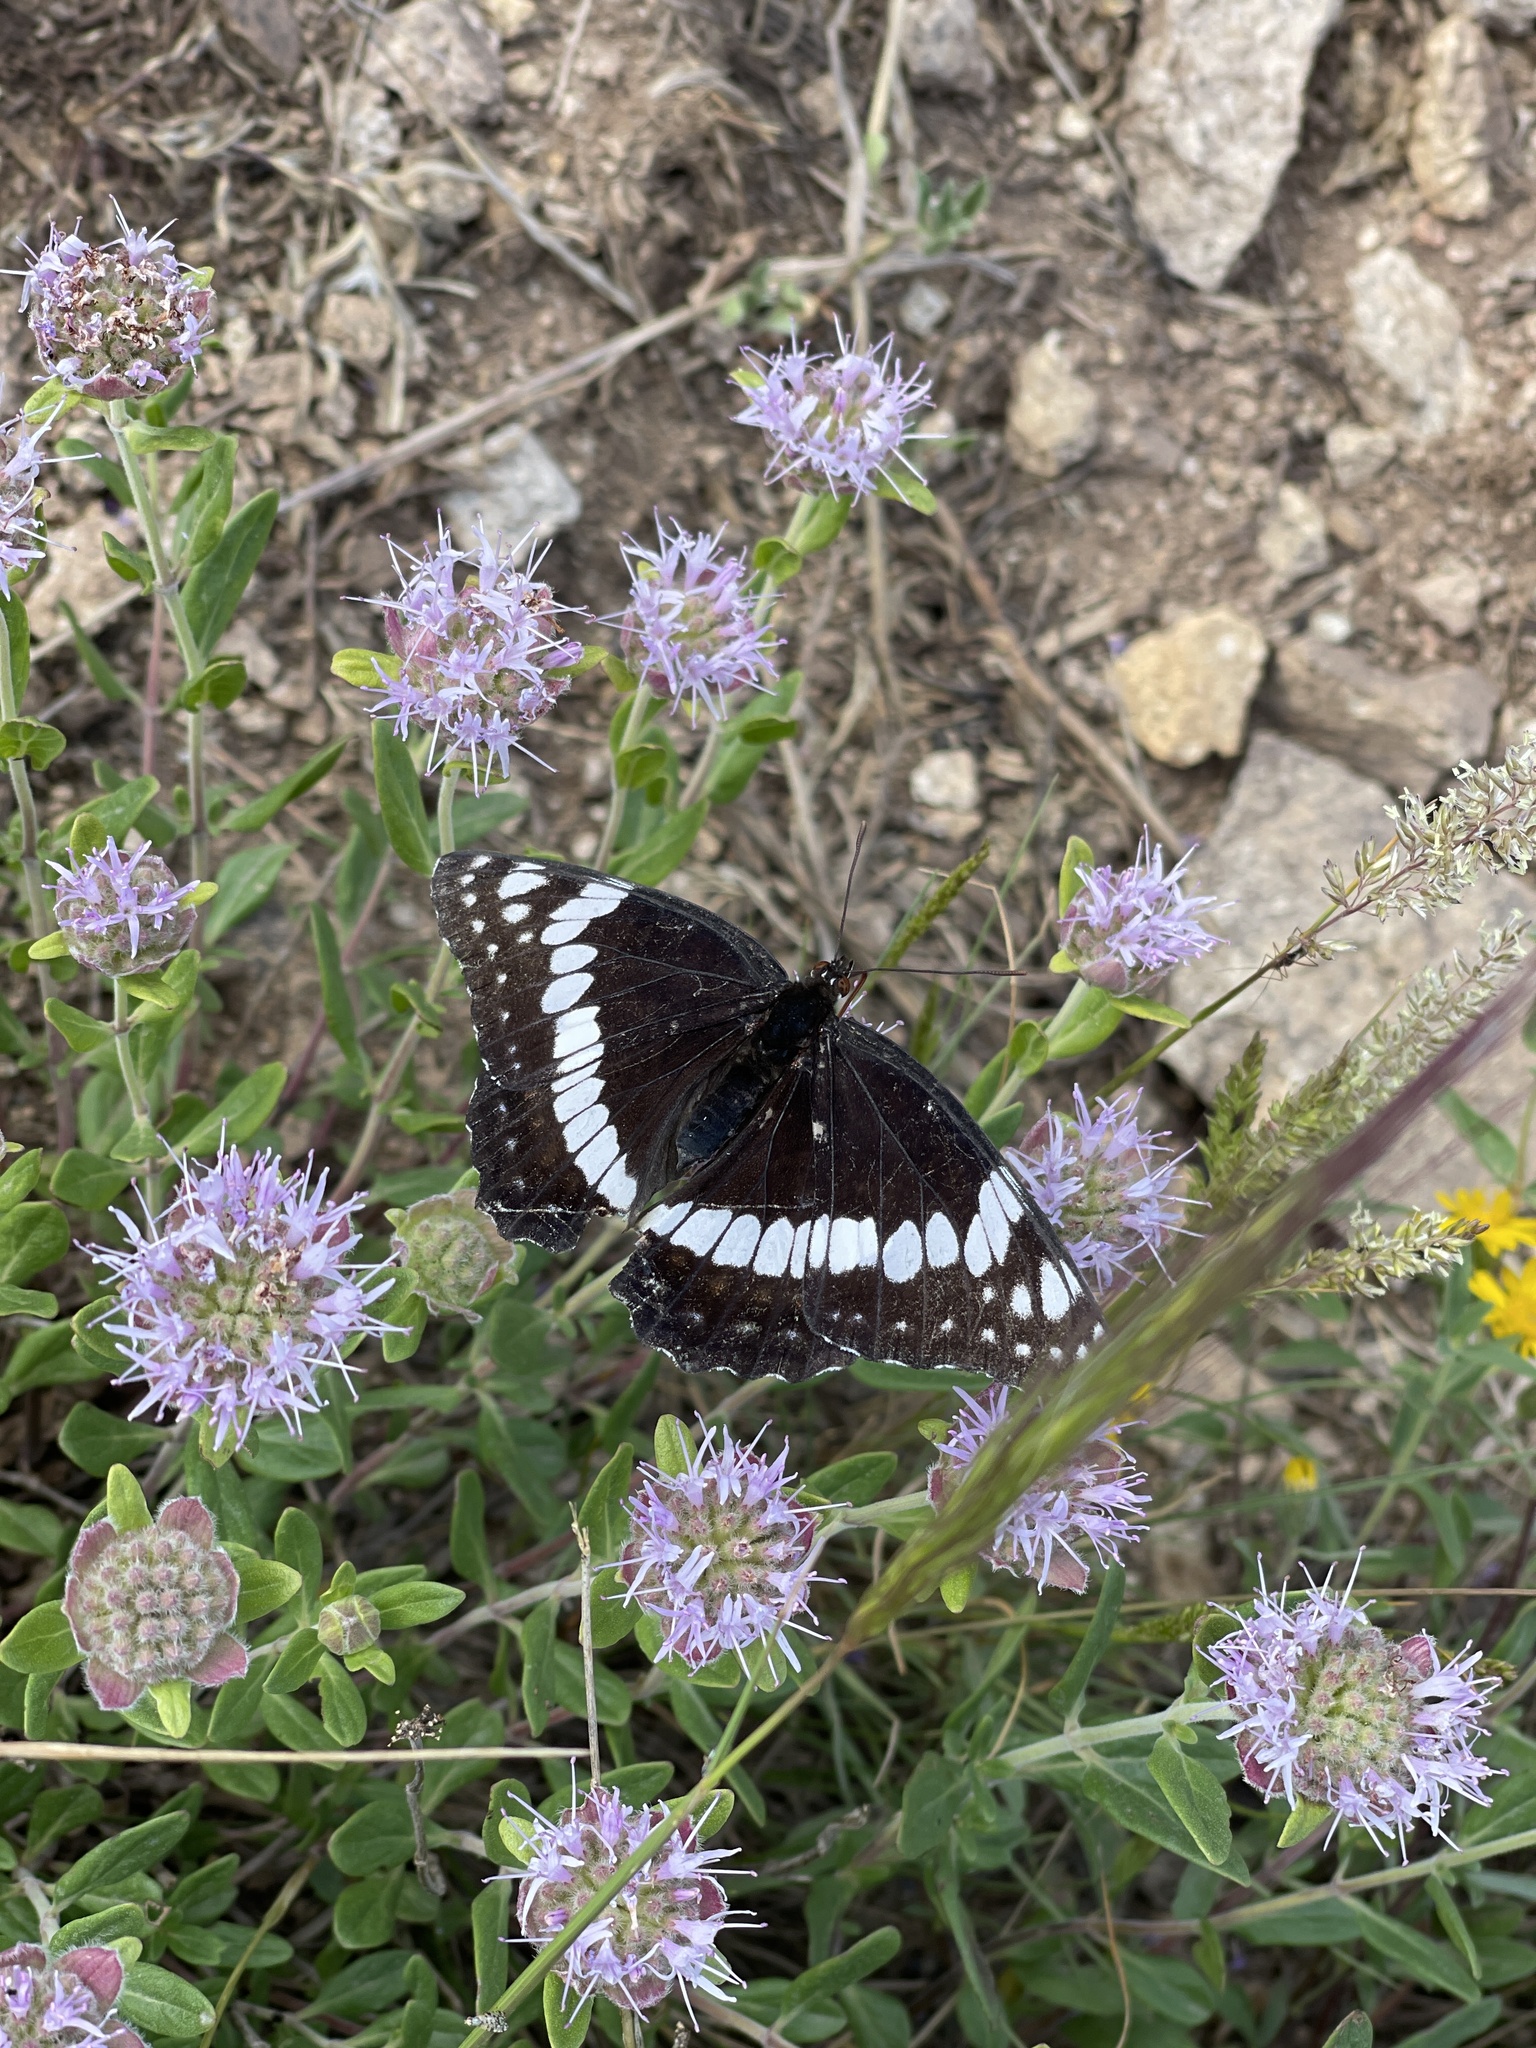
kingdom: Animalia
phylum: Arthropoda
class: Insecta
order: Lepidoptera
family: Nymphalidae
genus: Limenitis
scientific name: Limenitis weidemeyerii
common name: Weidemeyer's admiral
